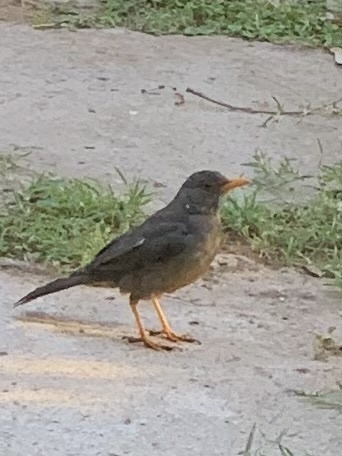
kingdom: Animalia
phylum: Chordata
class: Aves
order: Passeriformes
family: Turdidae
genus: Turdus
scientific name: Turdus smithi
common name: Karoo thrush
